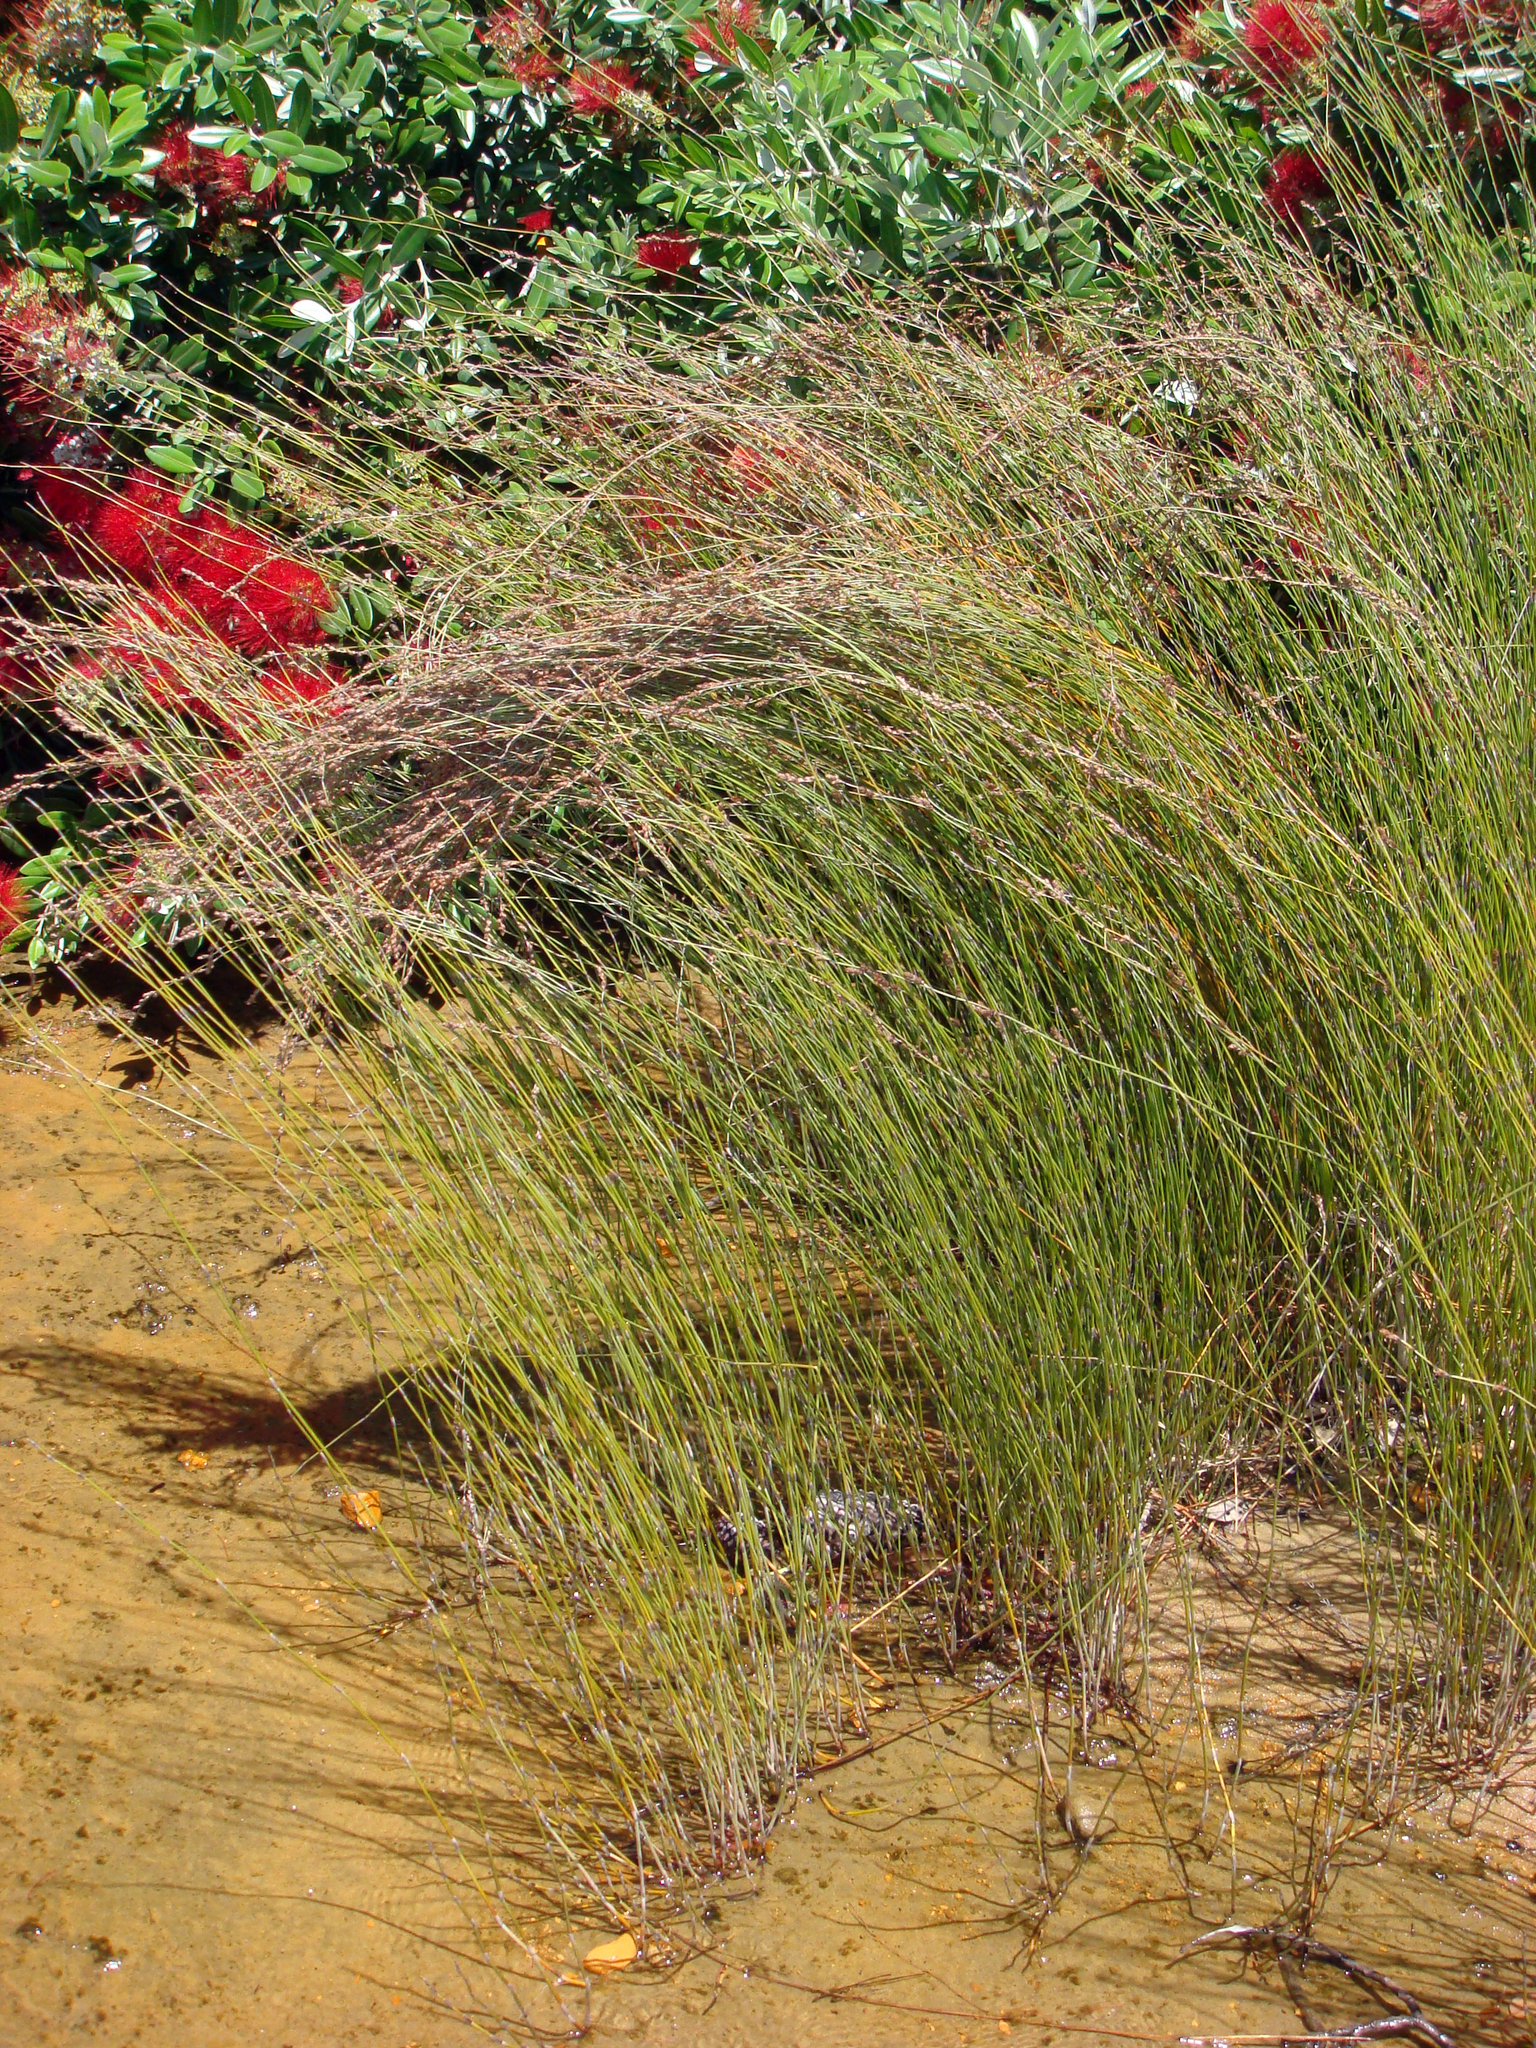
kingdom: Plantae
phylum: Tracheophyta
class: Liliopsida
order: Poales
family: Restionaceae
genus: Apodasmia
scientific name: Apodasmia similis
